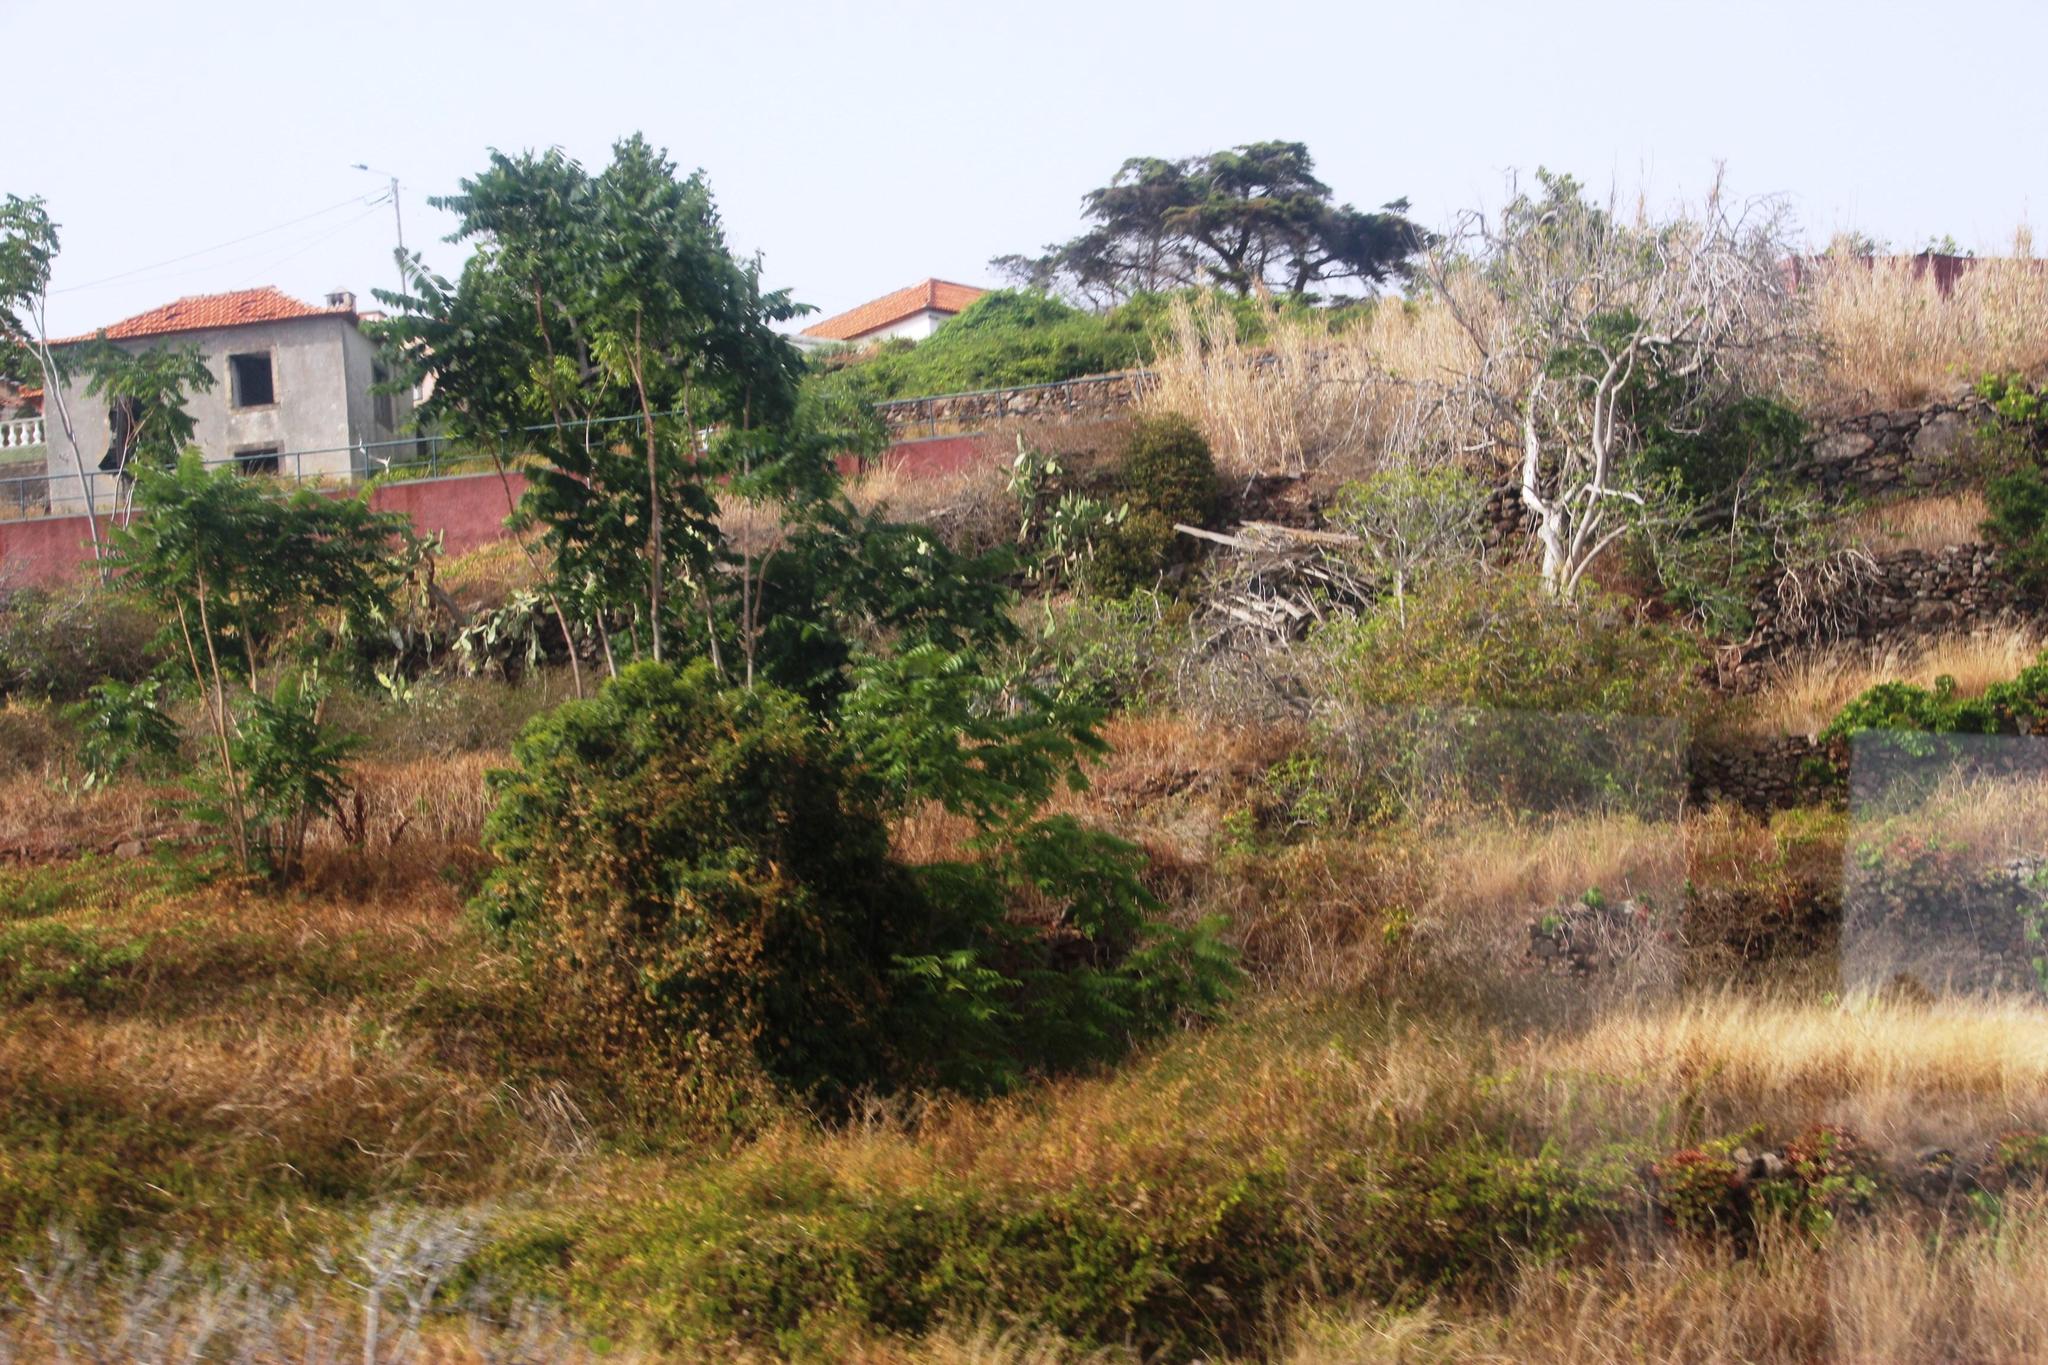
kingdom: Plantae
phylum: Tracheophyta
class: Magnoliopsida
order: Sapindales
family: Simaroubaceae
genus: Ailanthus
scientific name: Ailanthus altissima
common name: Tree-of-heaven
